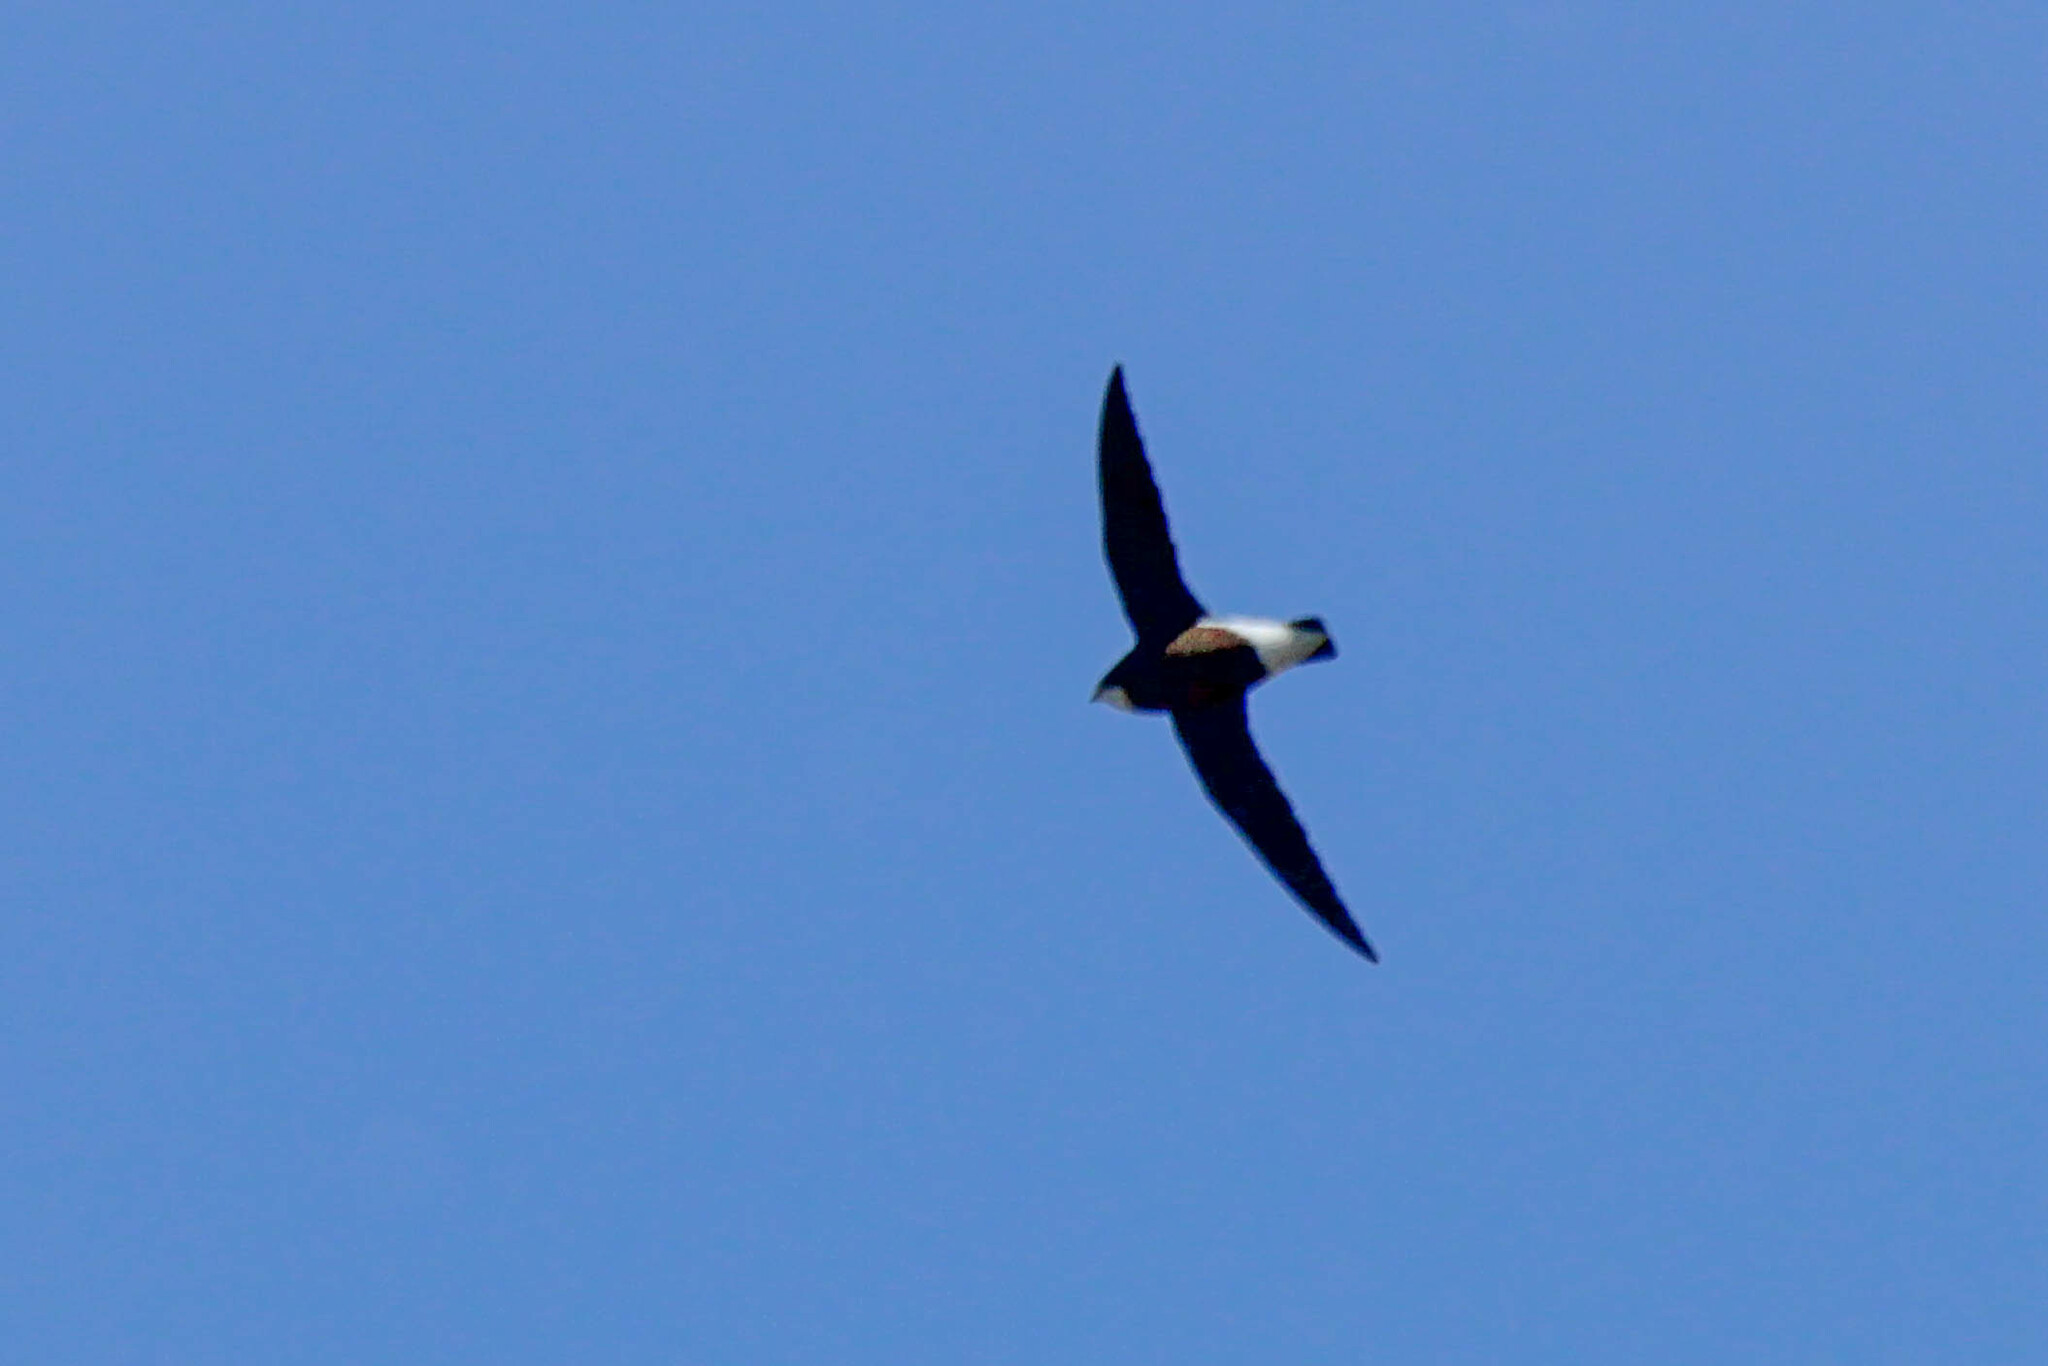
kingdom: Animalia
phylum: Chordata
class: Aves
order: Apodiformes
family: Apodidae
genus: Hirundapus
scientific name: Hirundapus caudacutus
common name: White-throated needletail
